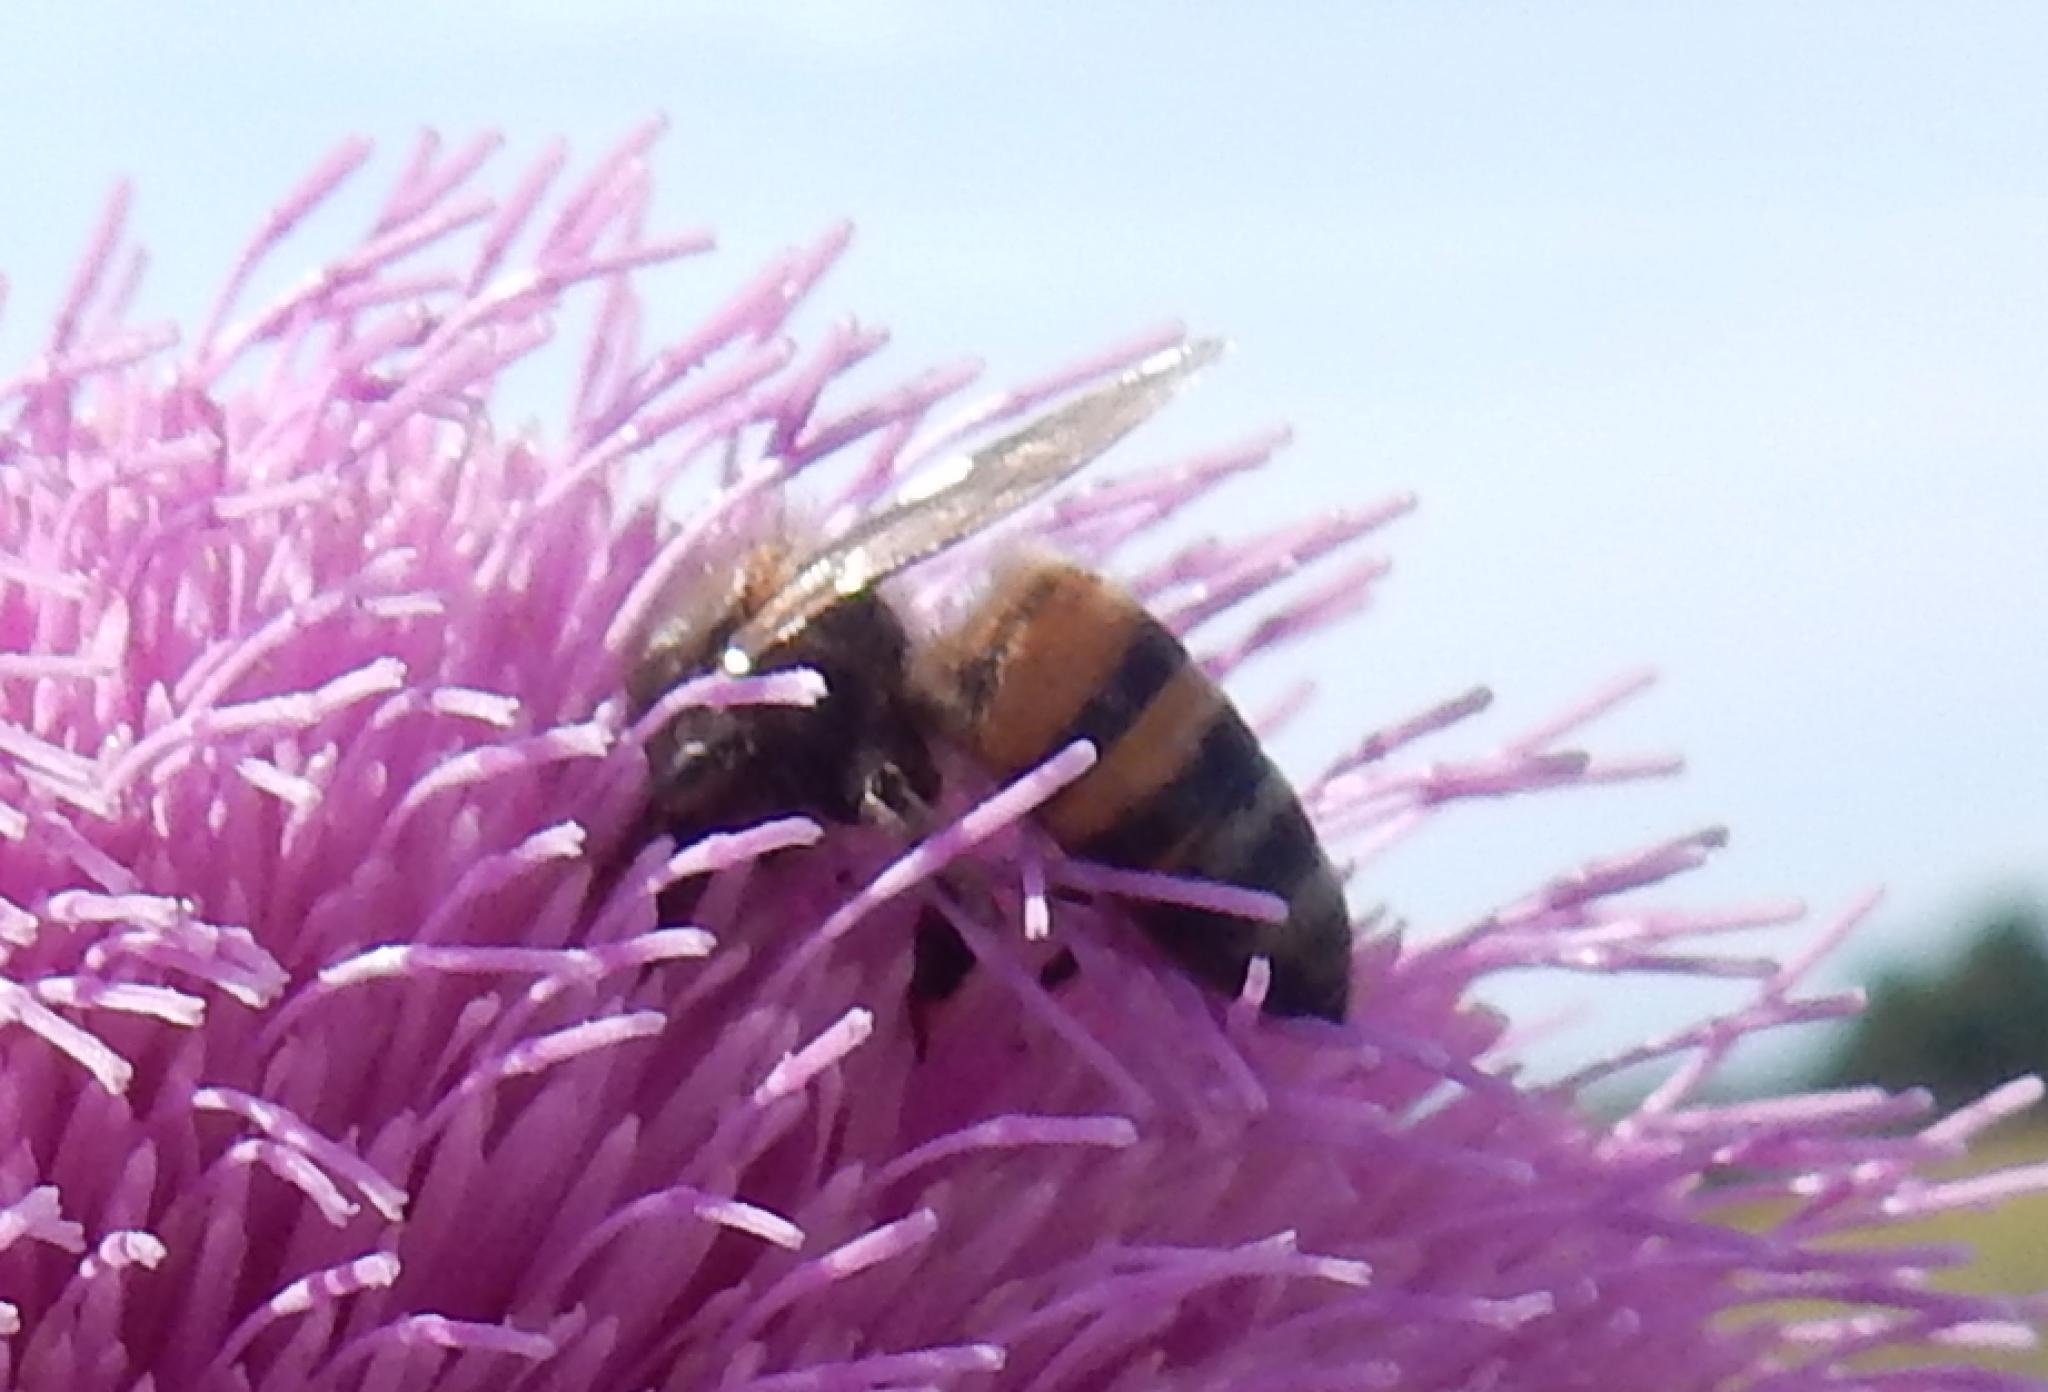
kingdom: Animalia
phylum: Arthropoda
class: Insecta
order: Hymenoptera
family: Apidae
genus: Apis
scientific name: Apis mellifera
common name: Honey bee
